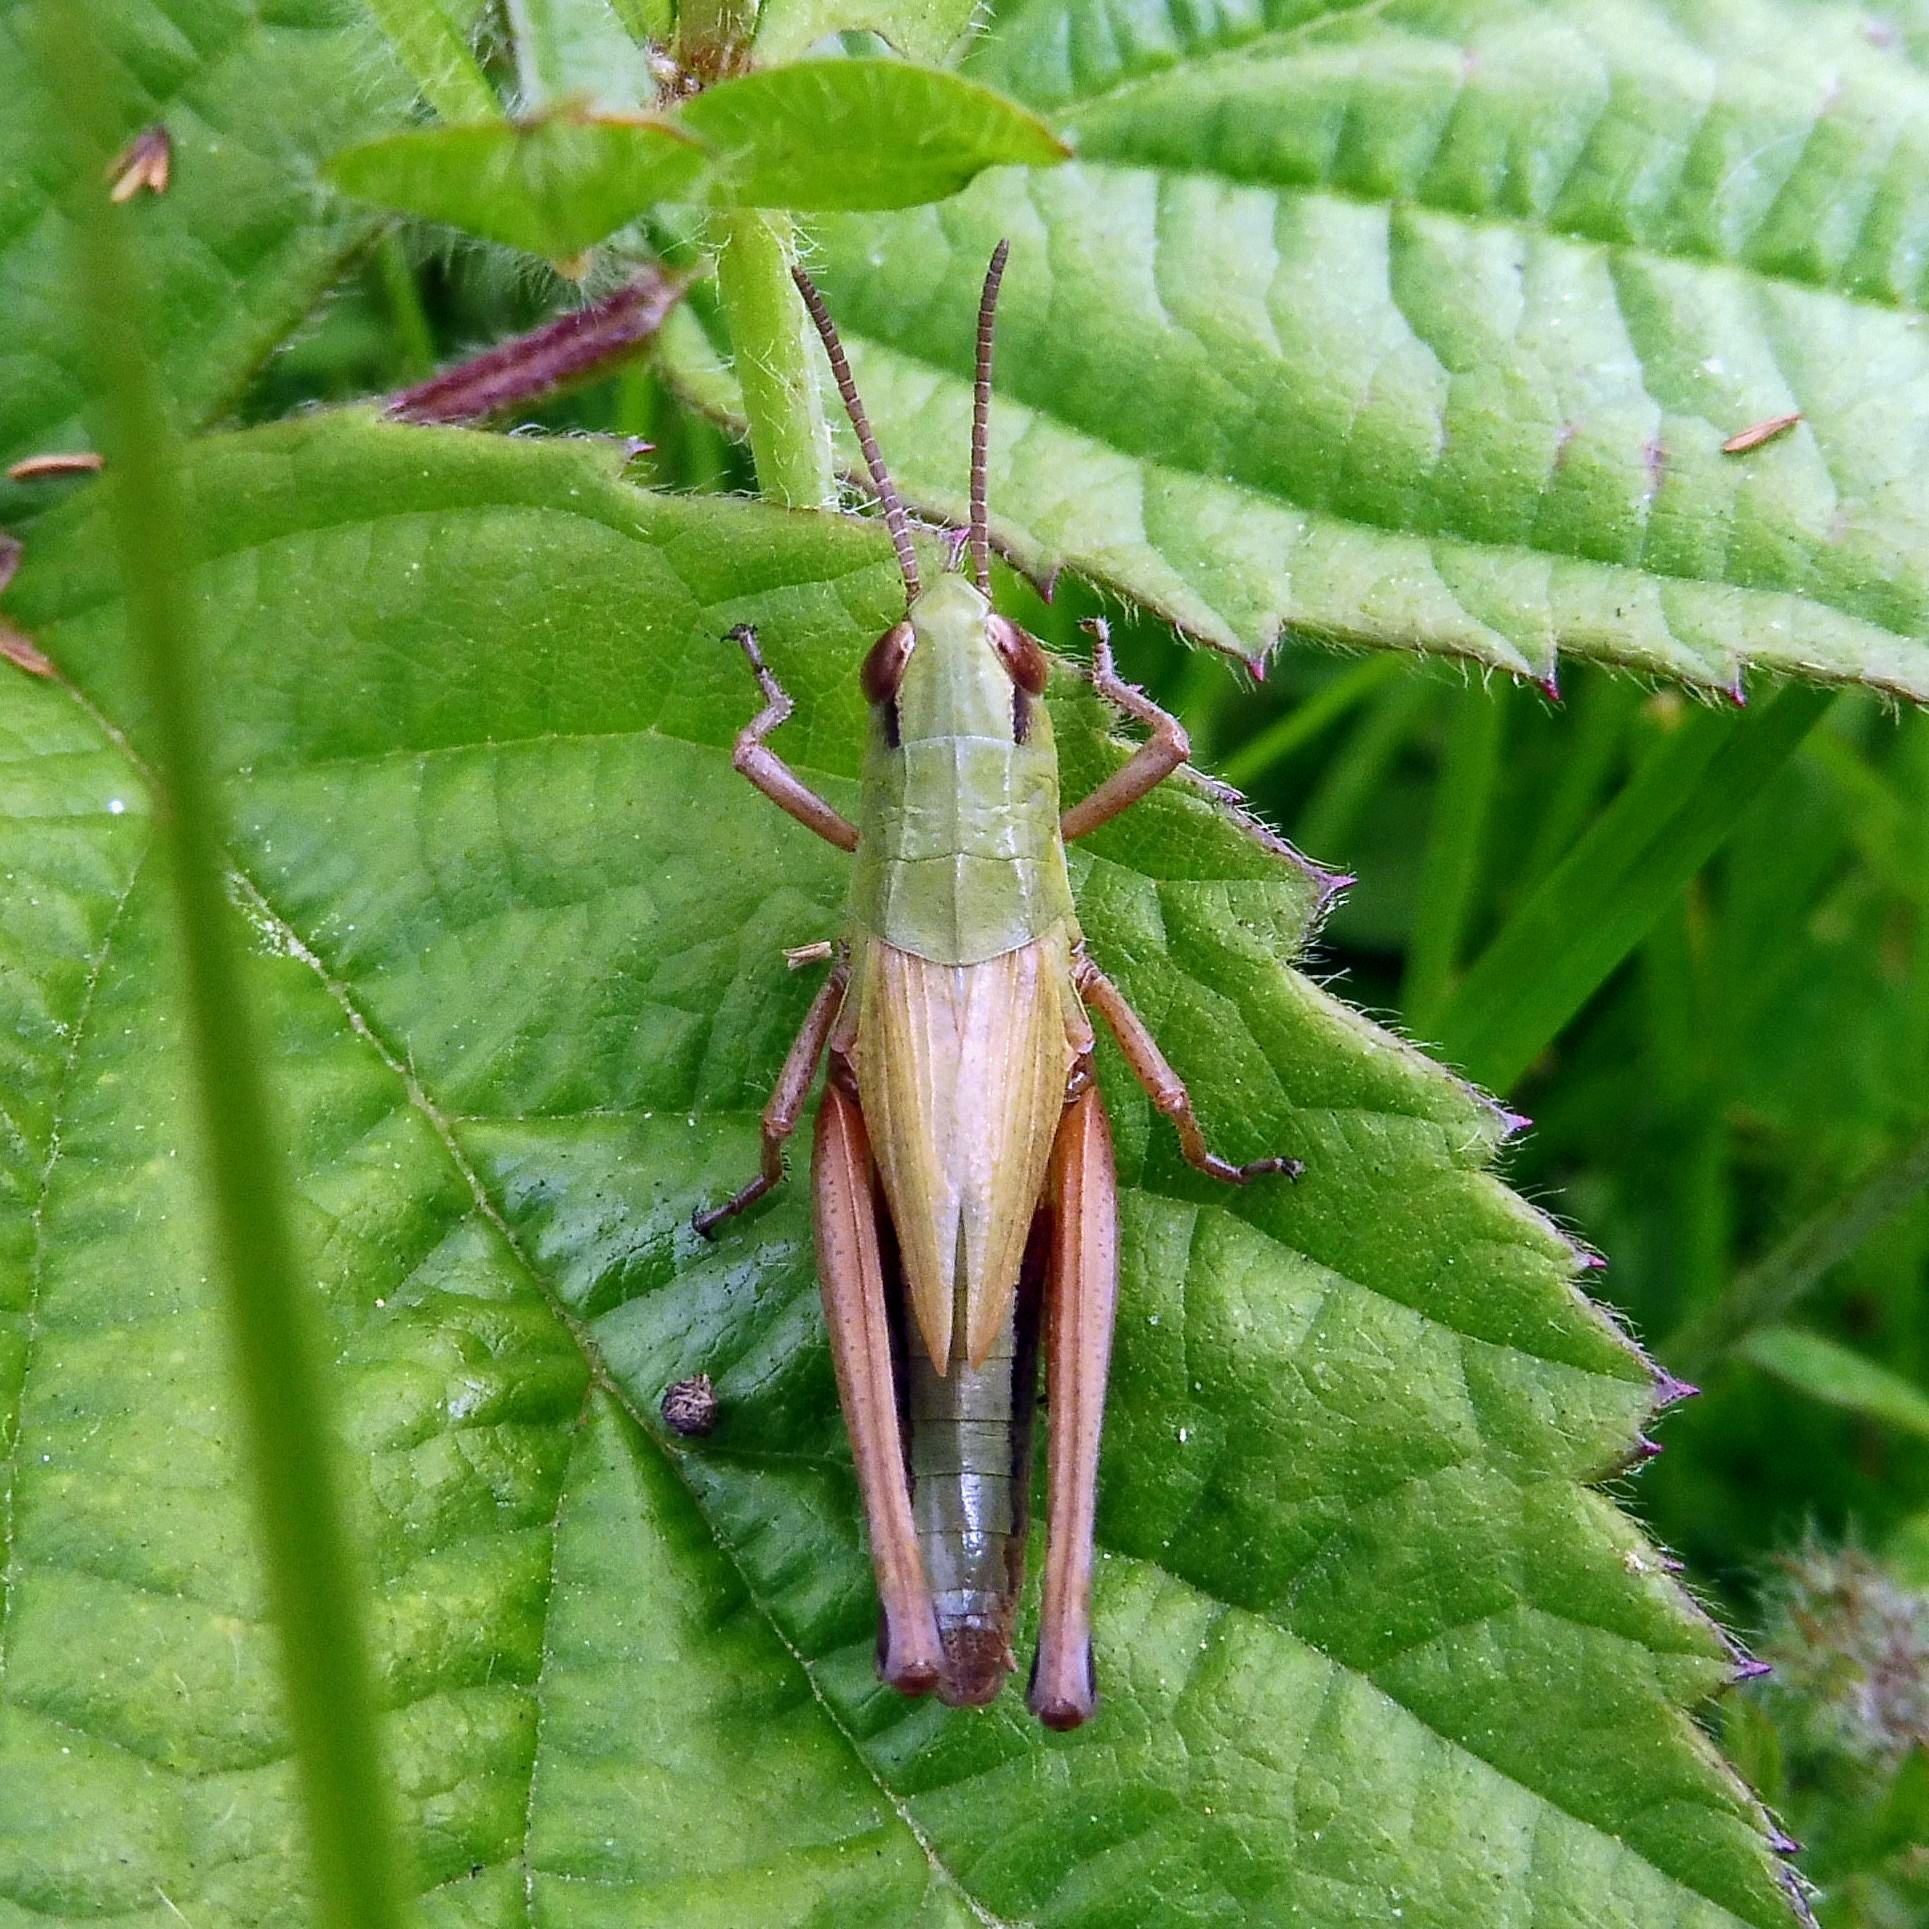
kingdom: Animalia
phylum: Arthropoda
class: Insecta
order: Orthoptera
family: Acrididae
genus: Pseudochorthippus
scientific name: Pseudochorthippus parallelus
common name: Meadow grasshopper
